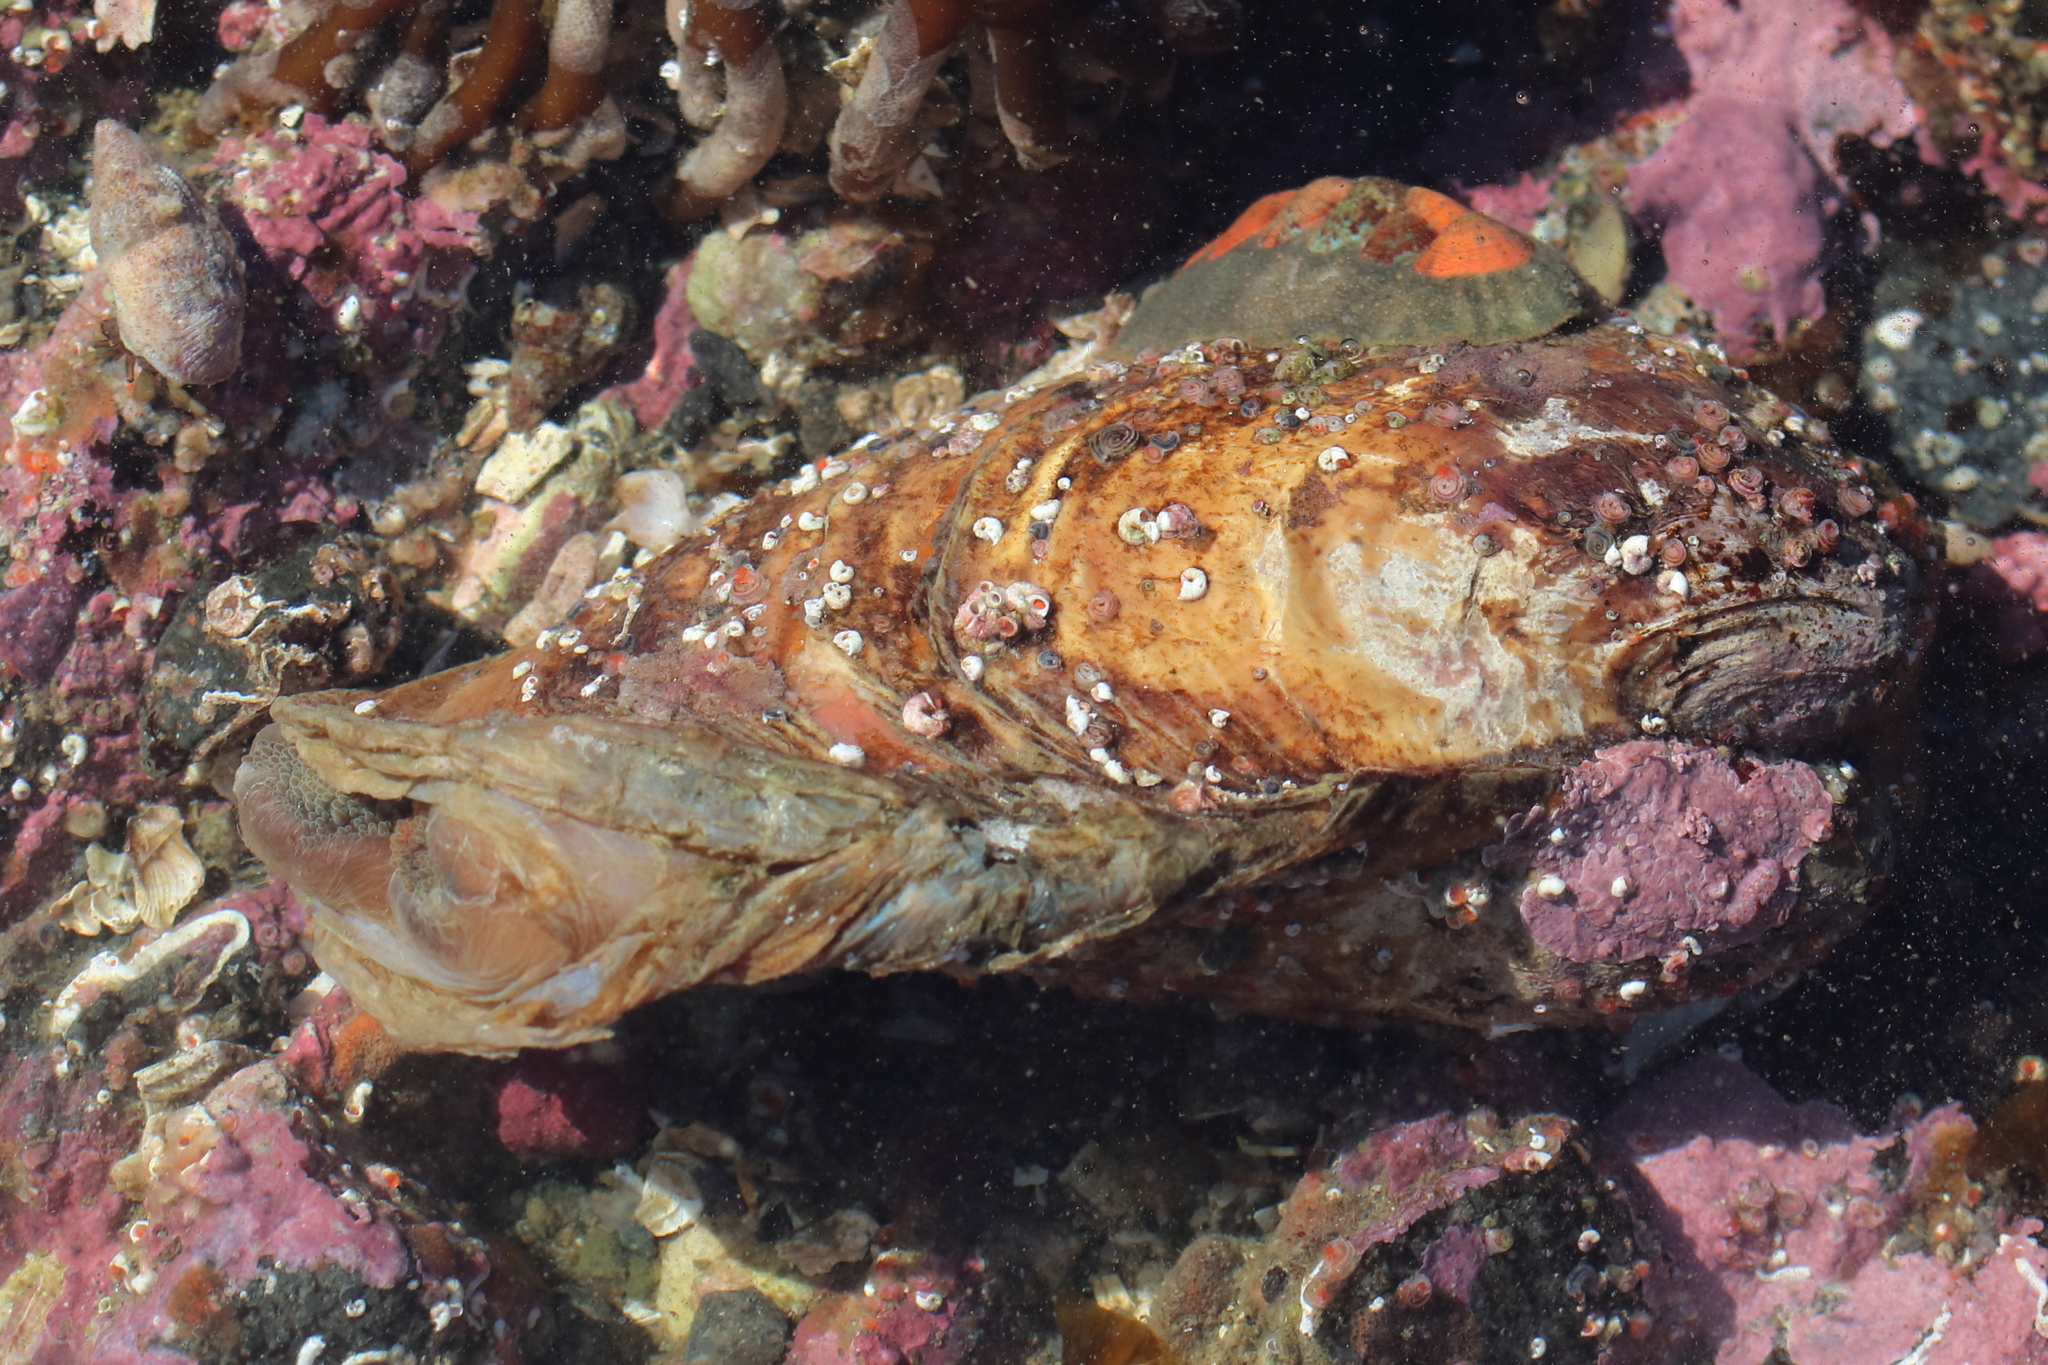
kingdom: Animalia
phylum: Mollusca
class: Bivalvia
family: Lyonsiidae
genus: Entodesma
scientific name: Entodesma navicula
